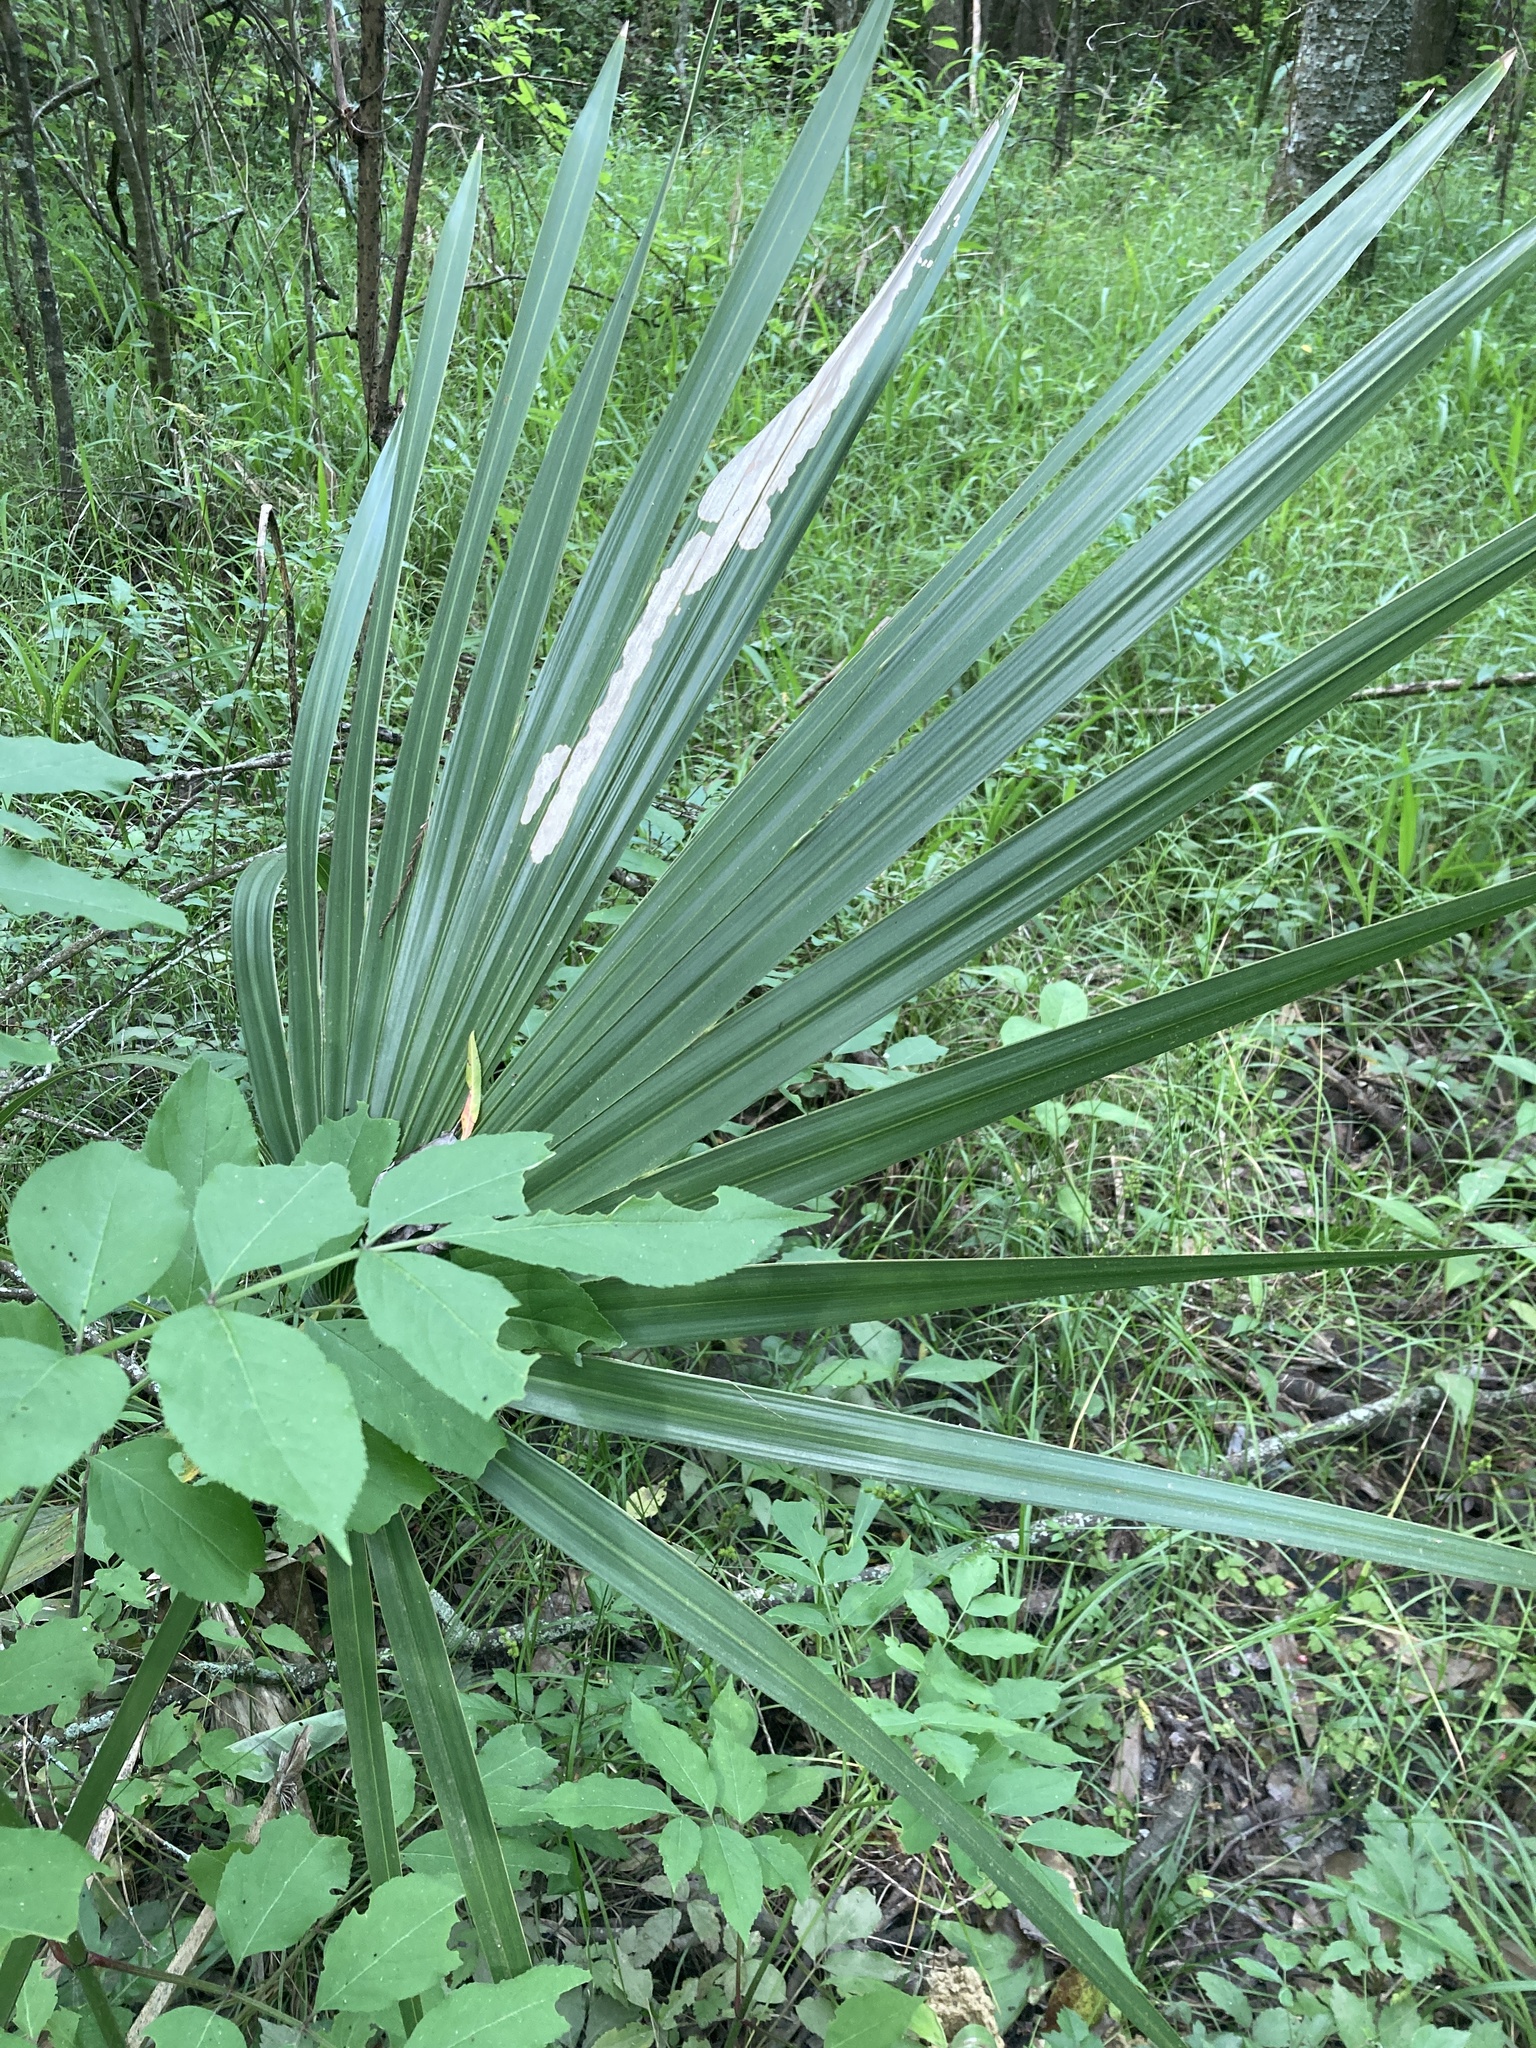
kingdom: Plantae
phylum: Tracheophyta
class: Liliopsida
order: Arecales
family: Arecaceae
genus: Sabal
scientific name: Sabal minor
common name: Dwarf palmetto
